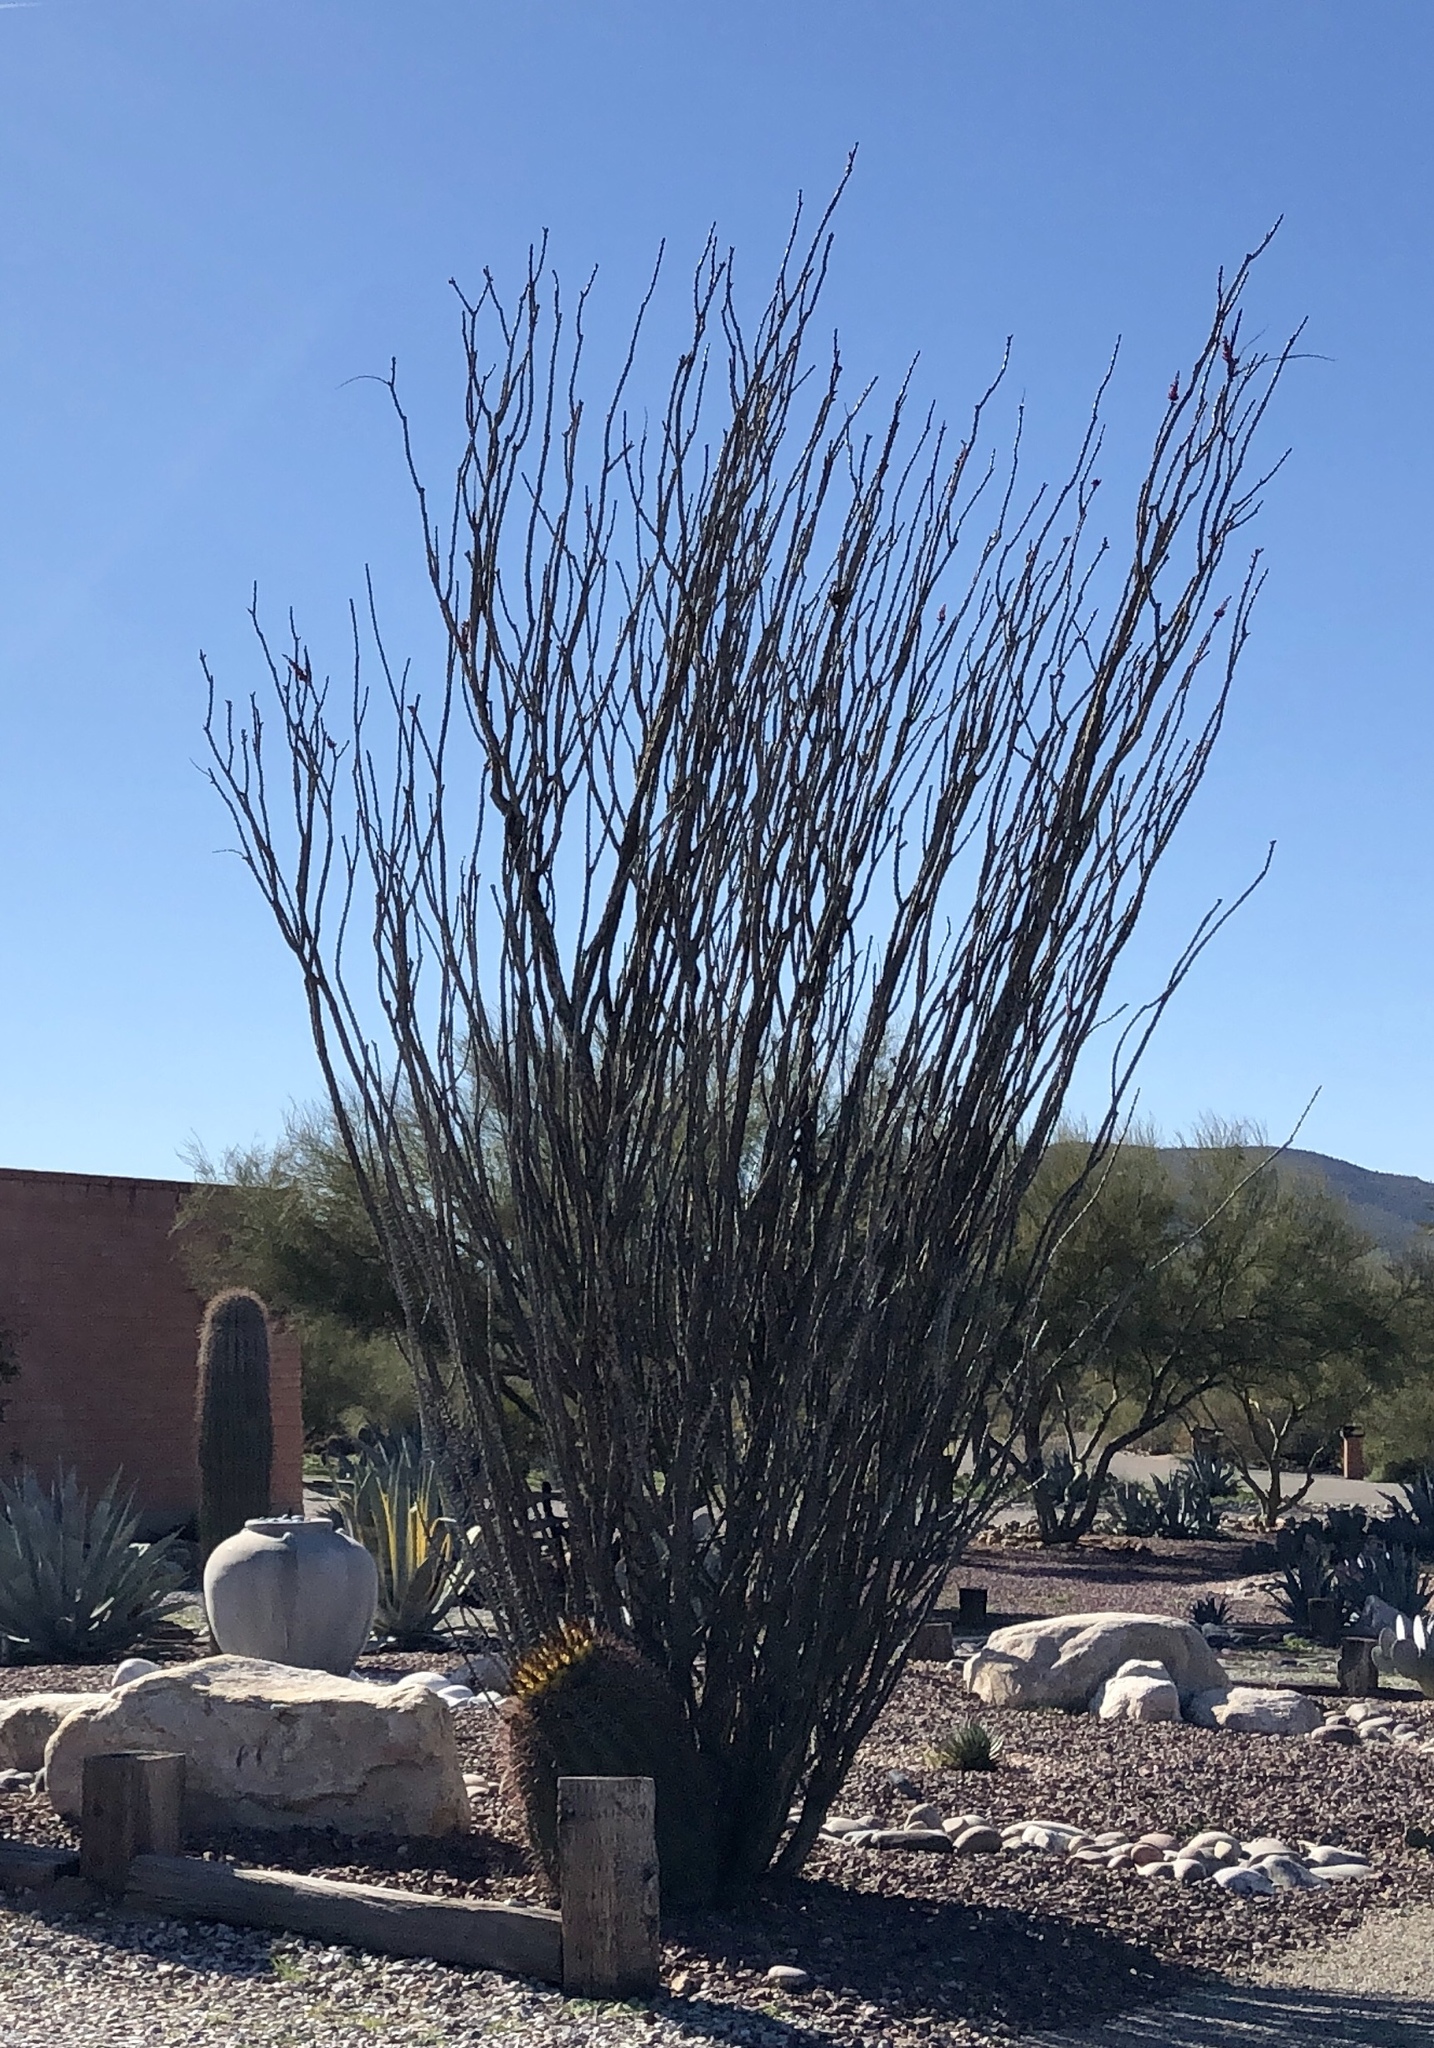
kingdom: Plantae
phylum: Tracheophyta
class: Magnoliopsida
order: Ericales
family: Fouquieriaceae
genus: Fouquieria
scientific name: Fouquieria splendens
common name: Vine-cactus
